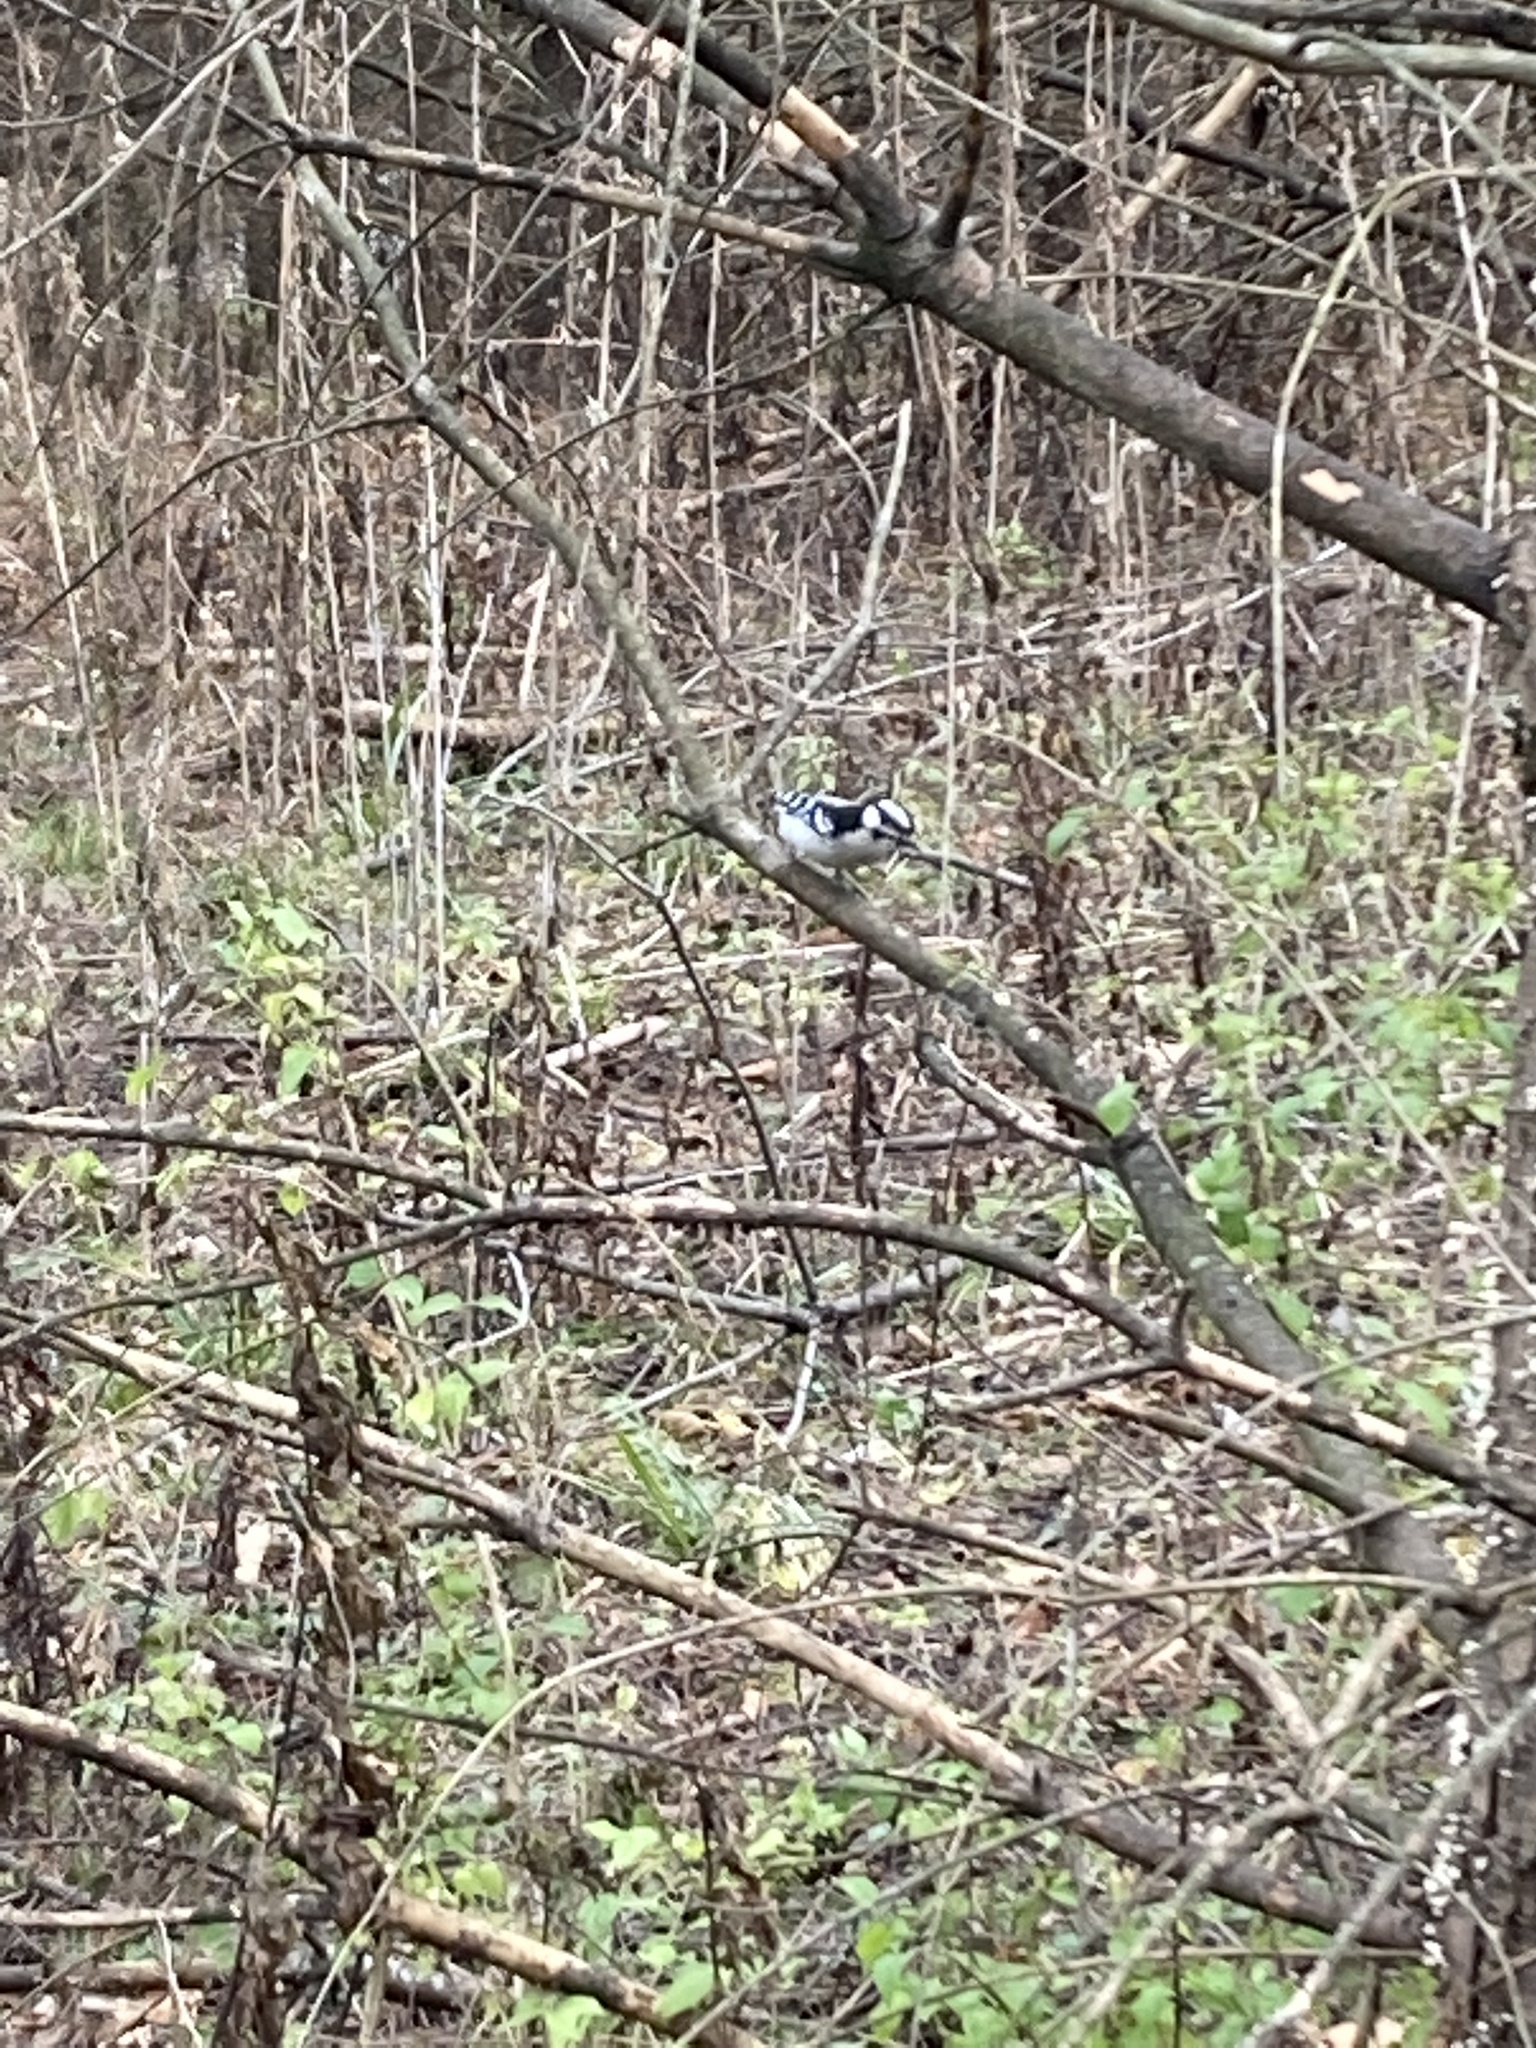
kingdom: Animalia
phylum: Chordata
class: Aves
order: Piciformes
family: Picidae
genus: Dryobates
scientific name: Dryobates pubescens
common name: Downy woodpecker
